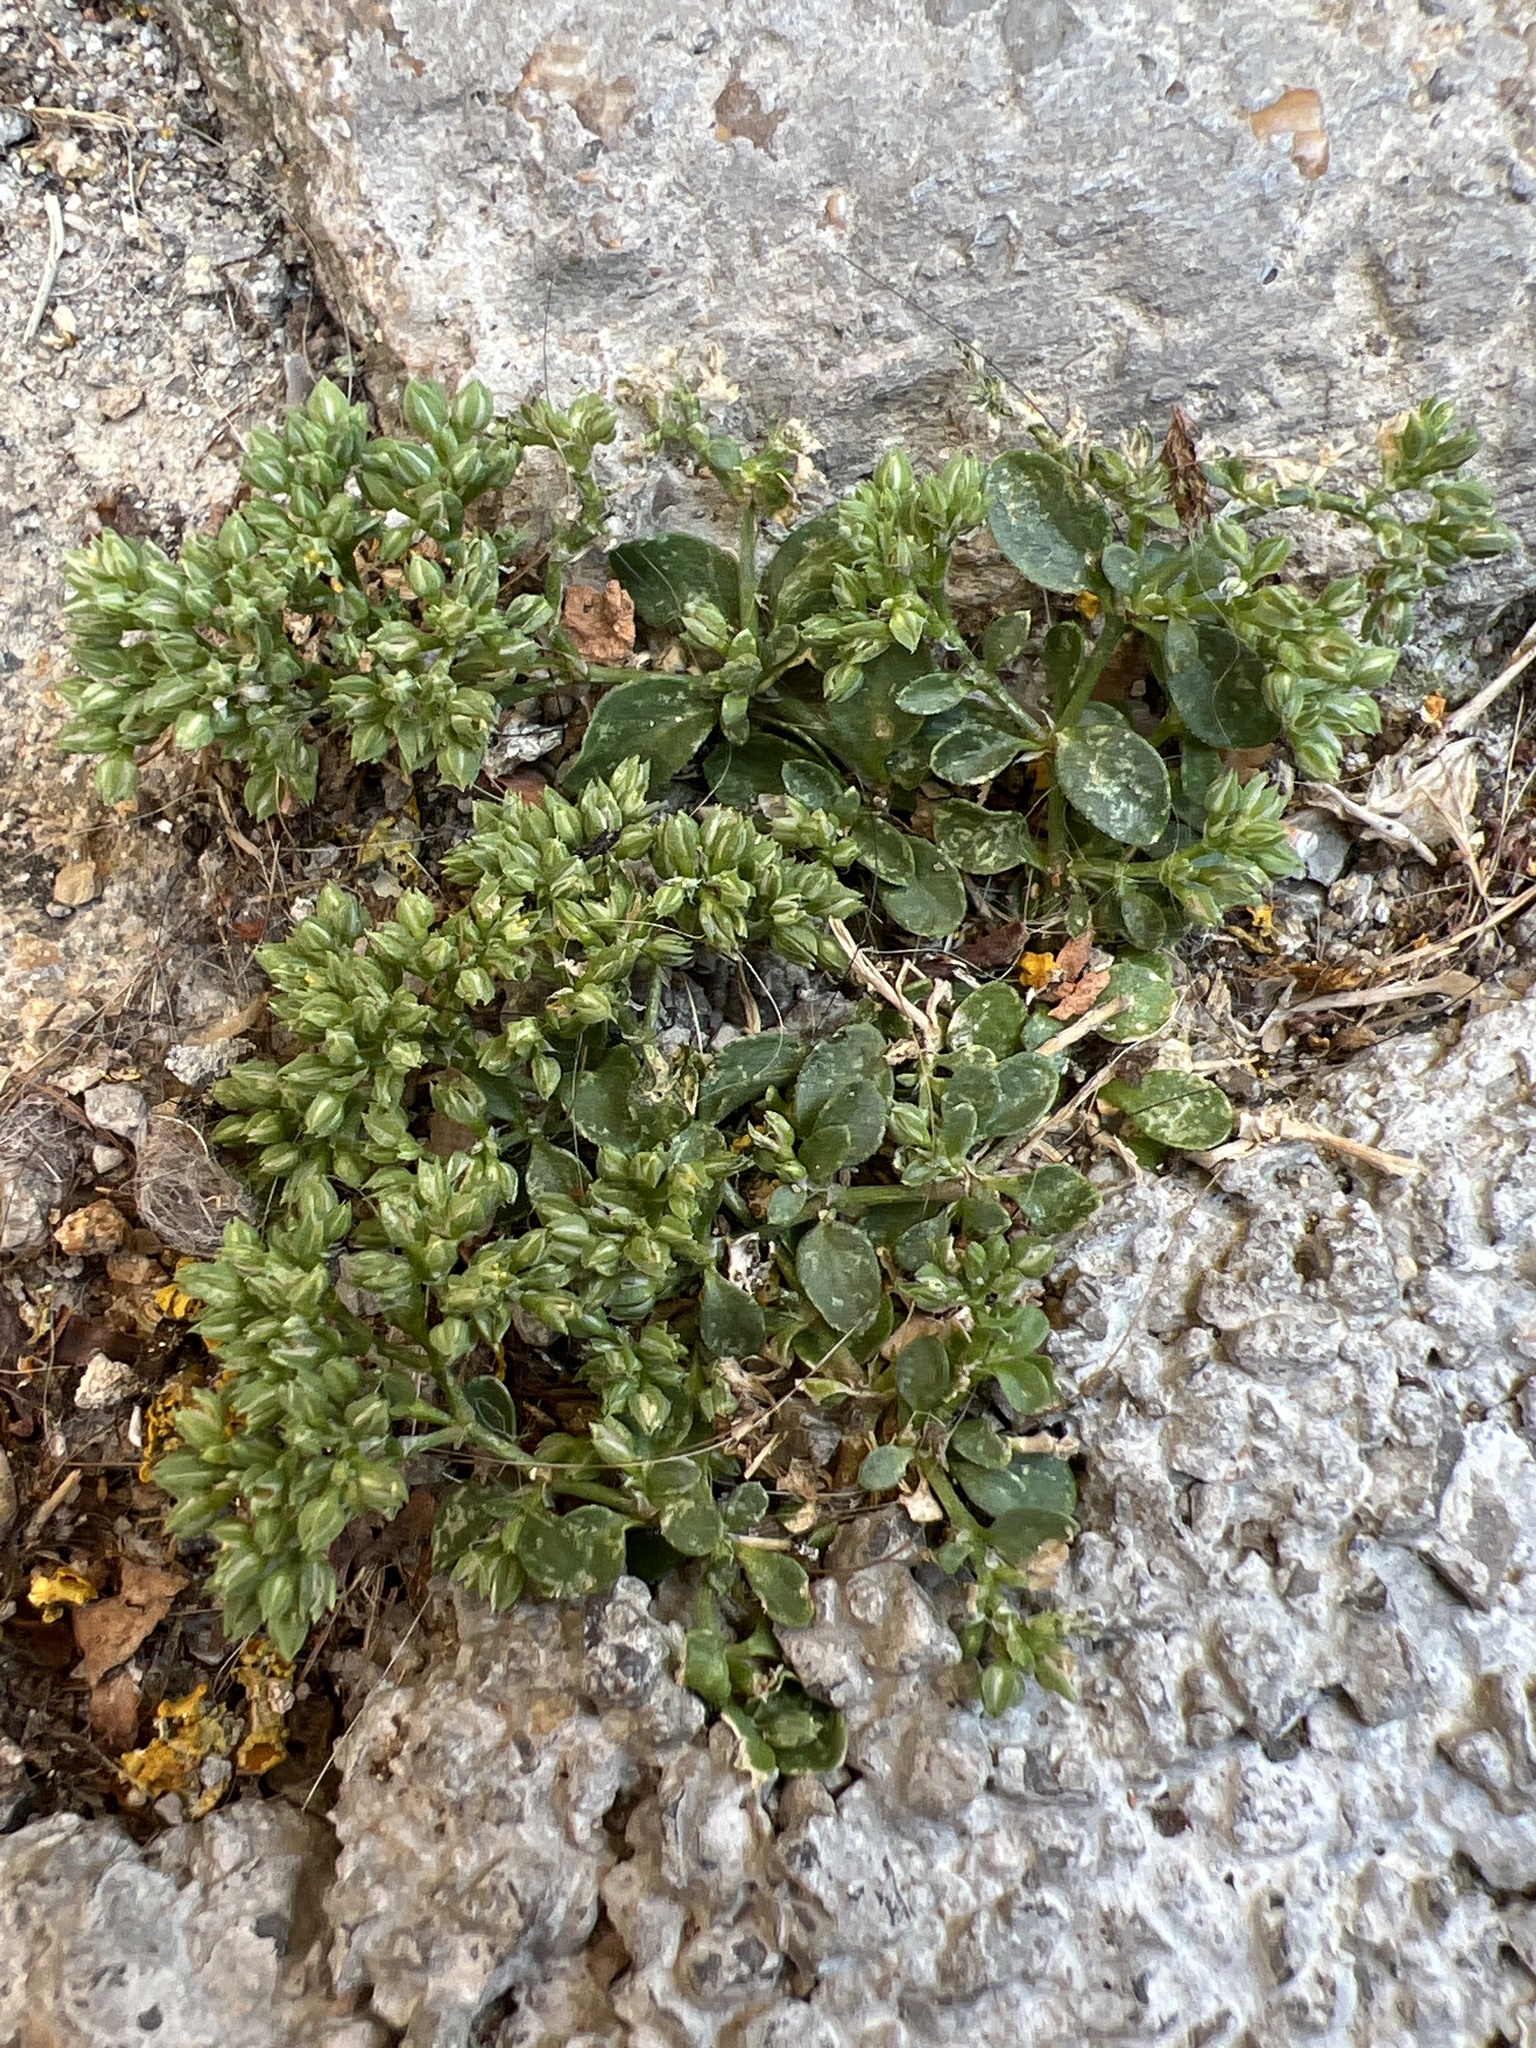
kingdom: Plantae
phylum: Tracheophyta
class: Magnoliopsida
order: Caryophyllales
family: Caryophyllaceae
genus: Polycarpon
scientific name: Polycarpon tetraphyllum
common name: Four-leaved all-seed
